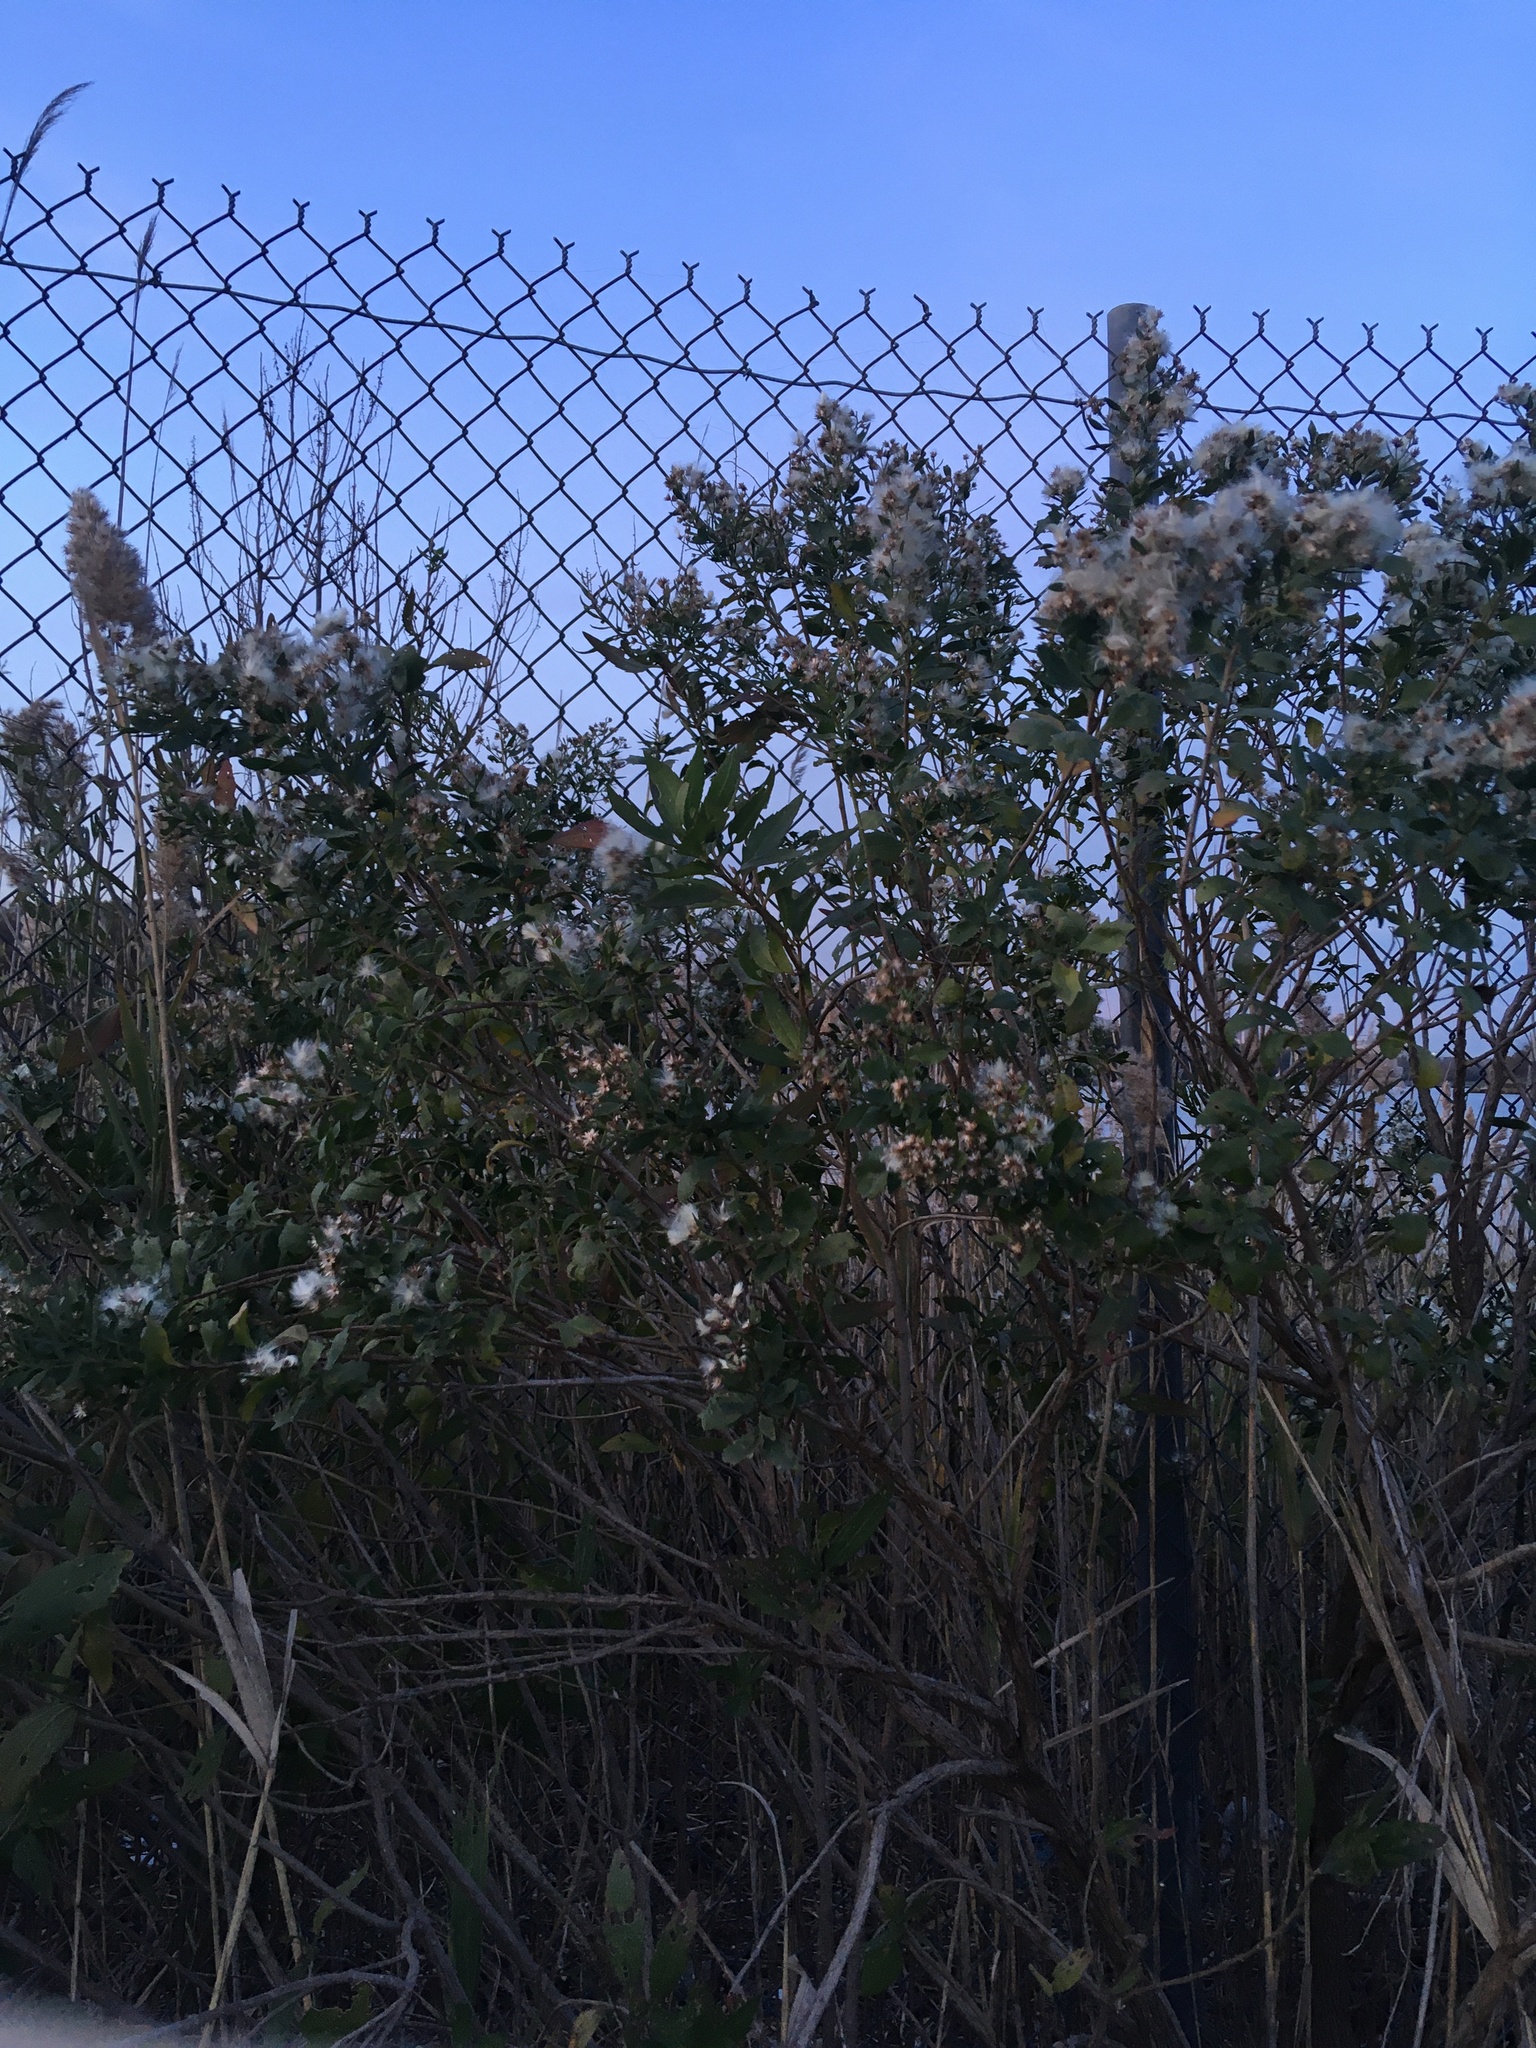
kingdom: Plantae
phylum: Tracheophyta
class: Magnoliopsida
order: Asterales
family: Asteraceae
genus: Baccharis
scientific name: Baccharis halimifolia
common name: Eastern baccharis
